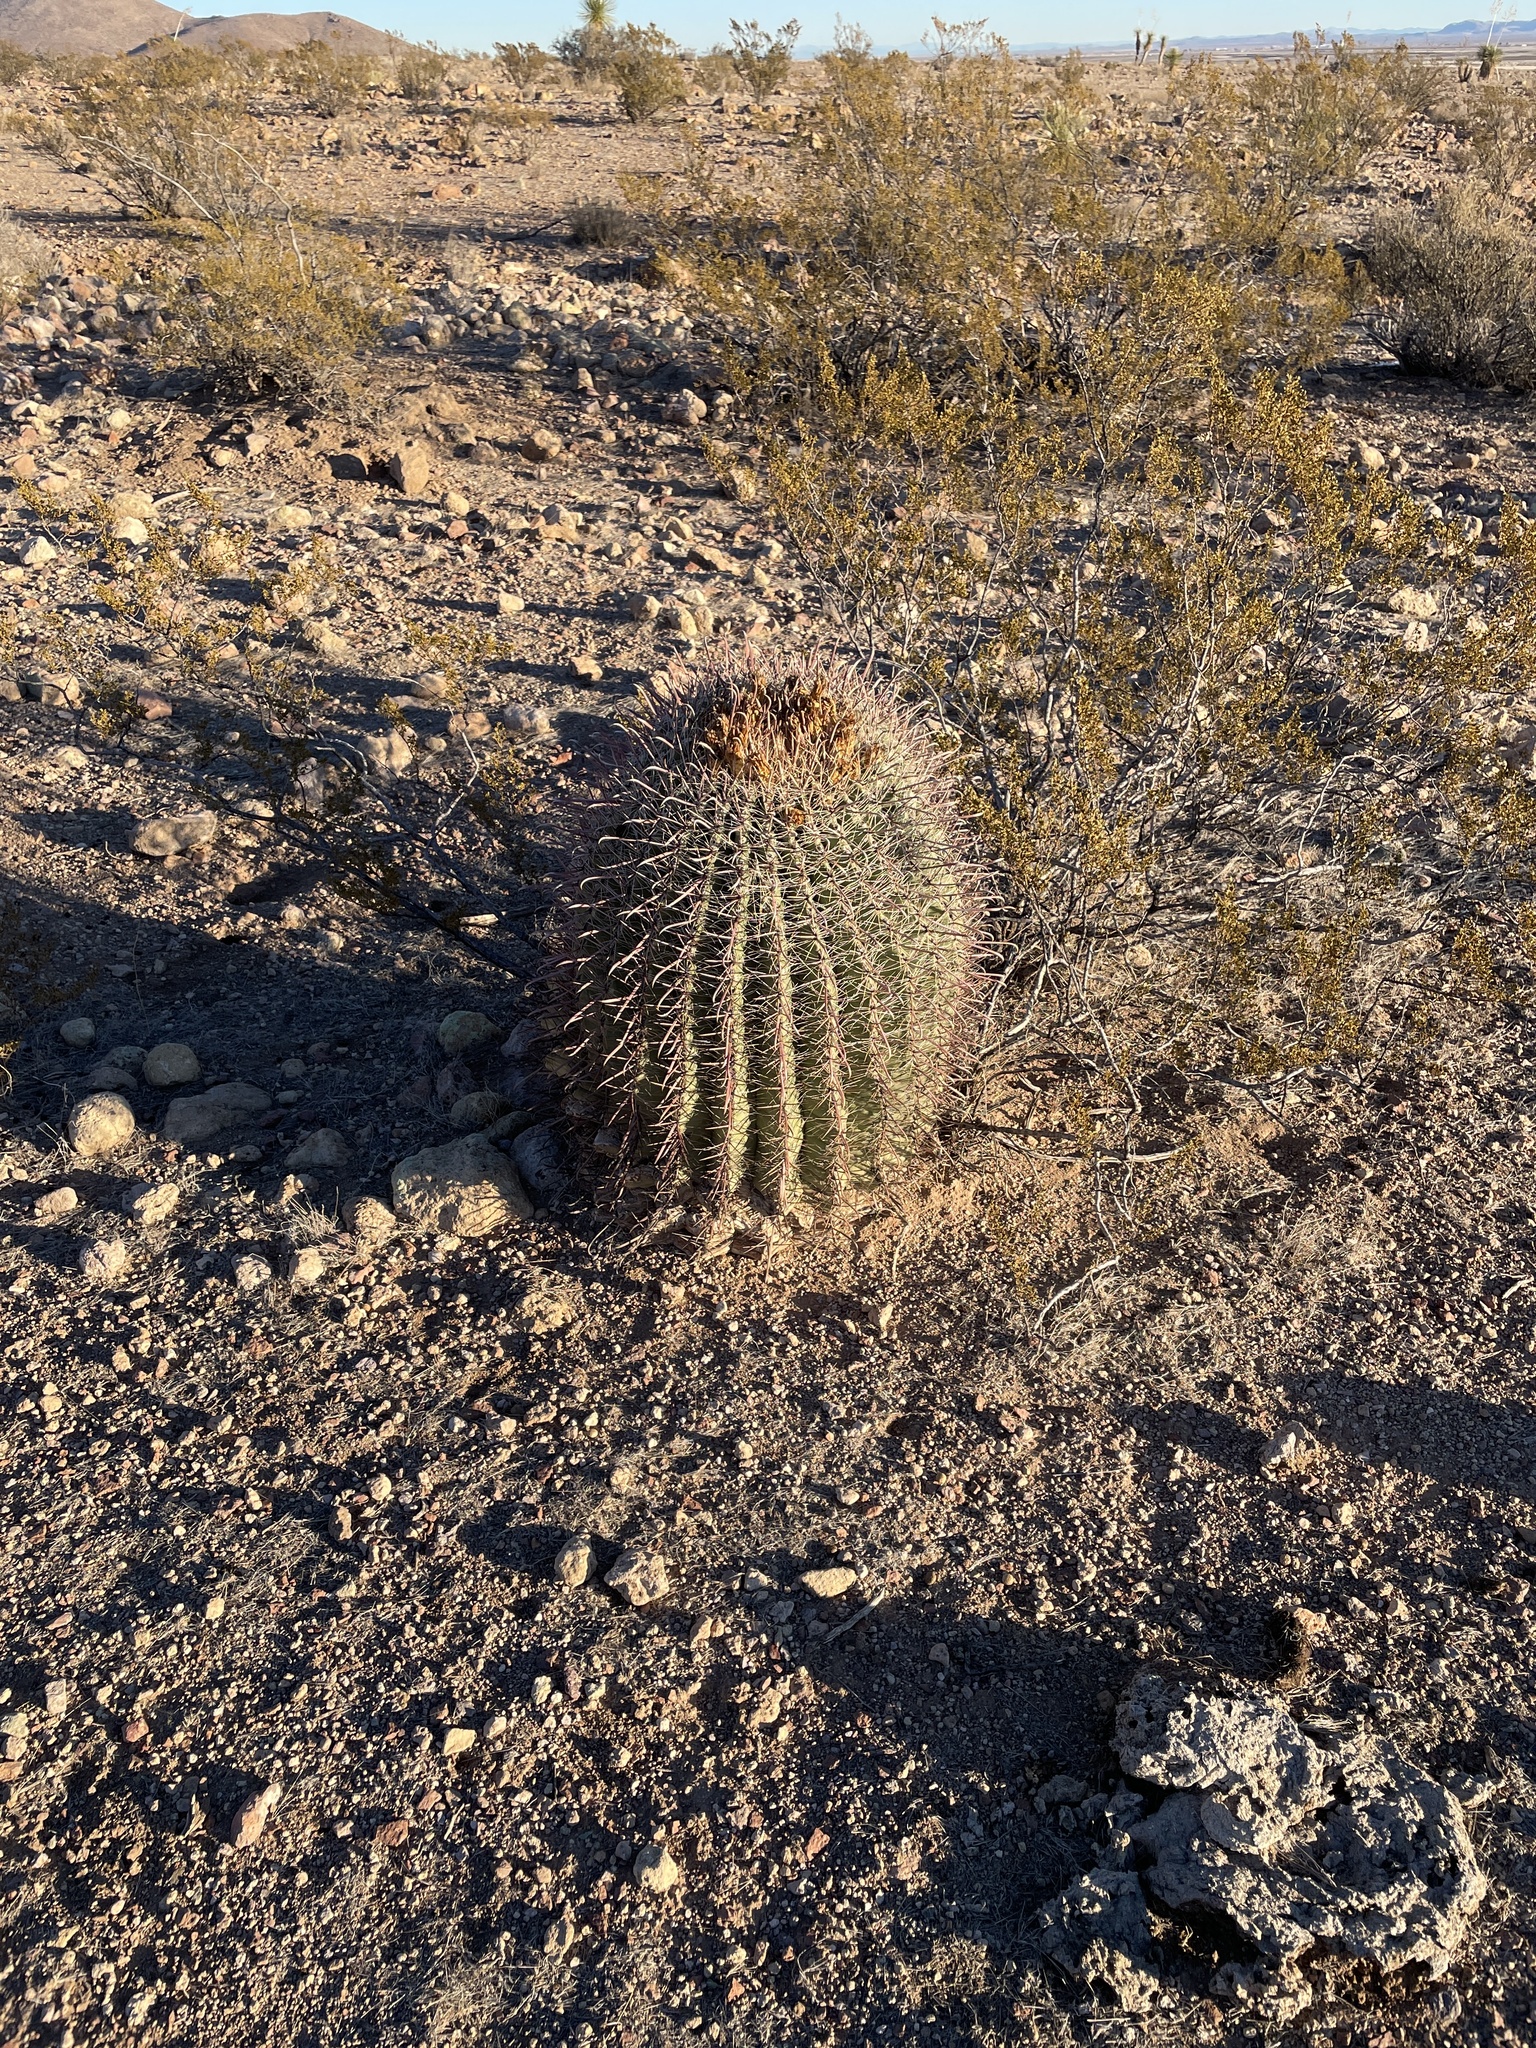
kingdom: Plantae
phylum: Tracheophyta
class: Magnoliopsida
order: Caryophyllales
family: Cactaceae
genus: Ferocactus
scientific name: Ferocactus wislizeni
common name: Candy barrel cactus
